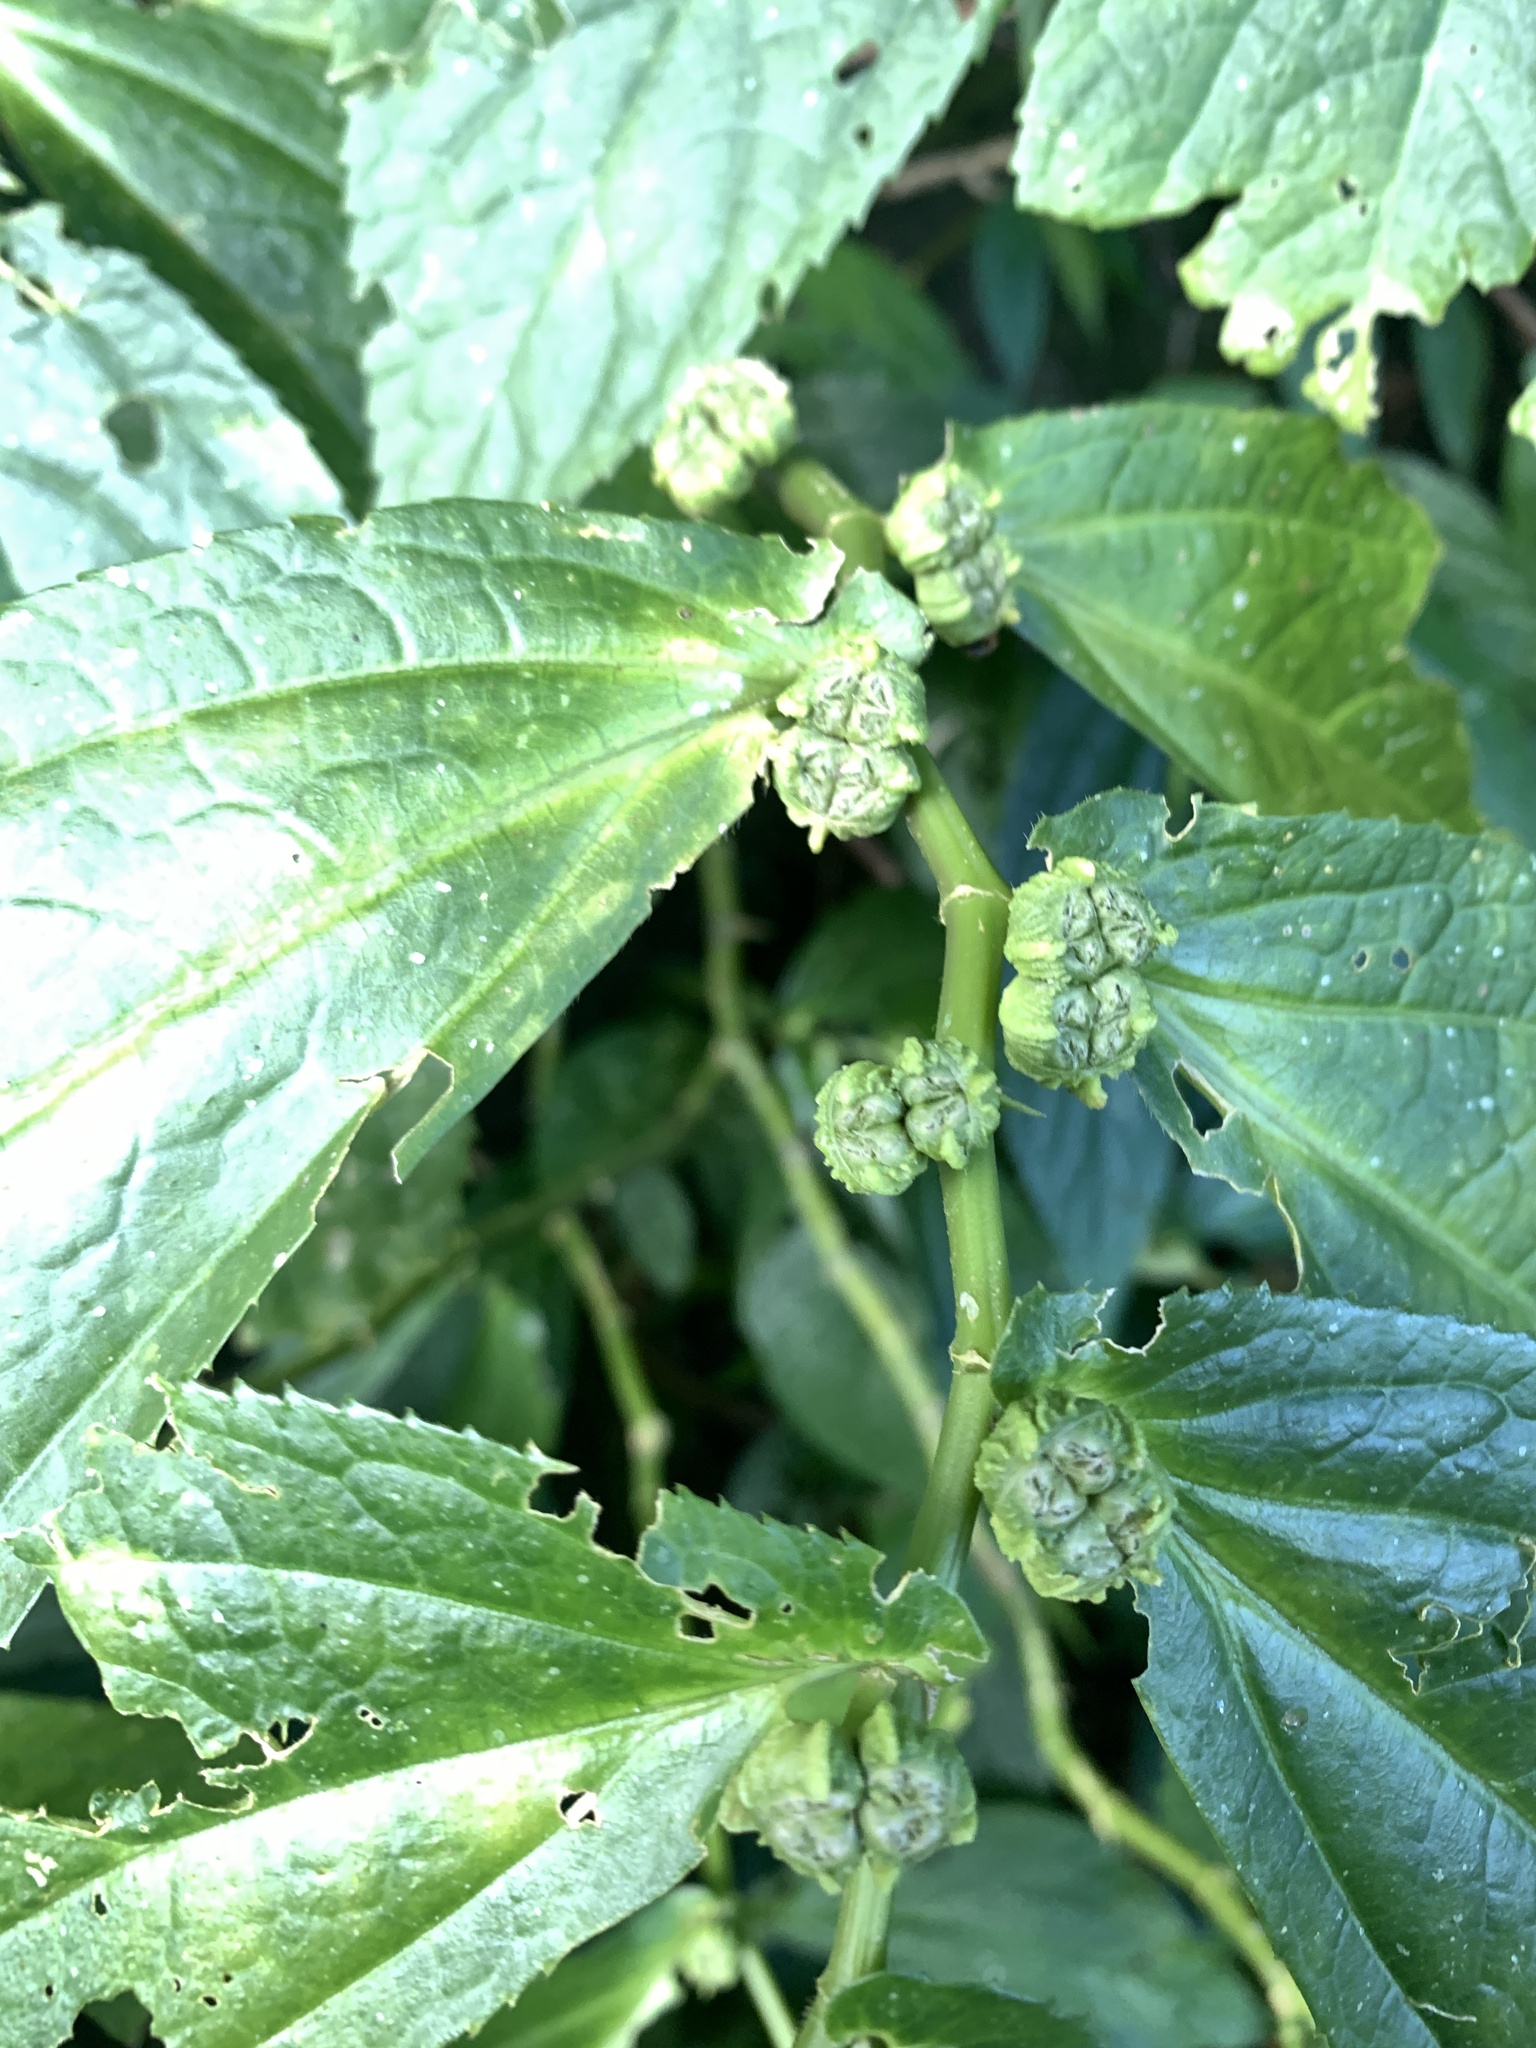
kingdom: Plantae
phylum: Tracheophyta
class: Magnoliopsida
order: Rosales
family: Urticaceae
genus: Elatostema
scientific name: Elatostema platyphyllum
